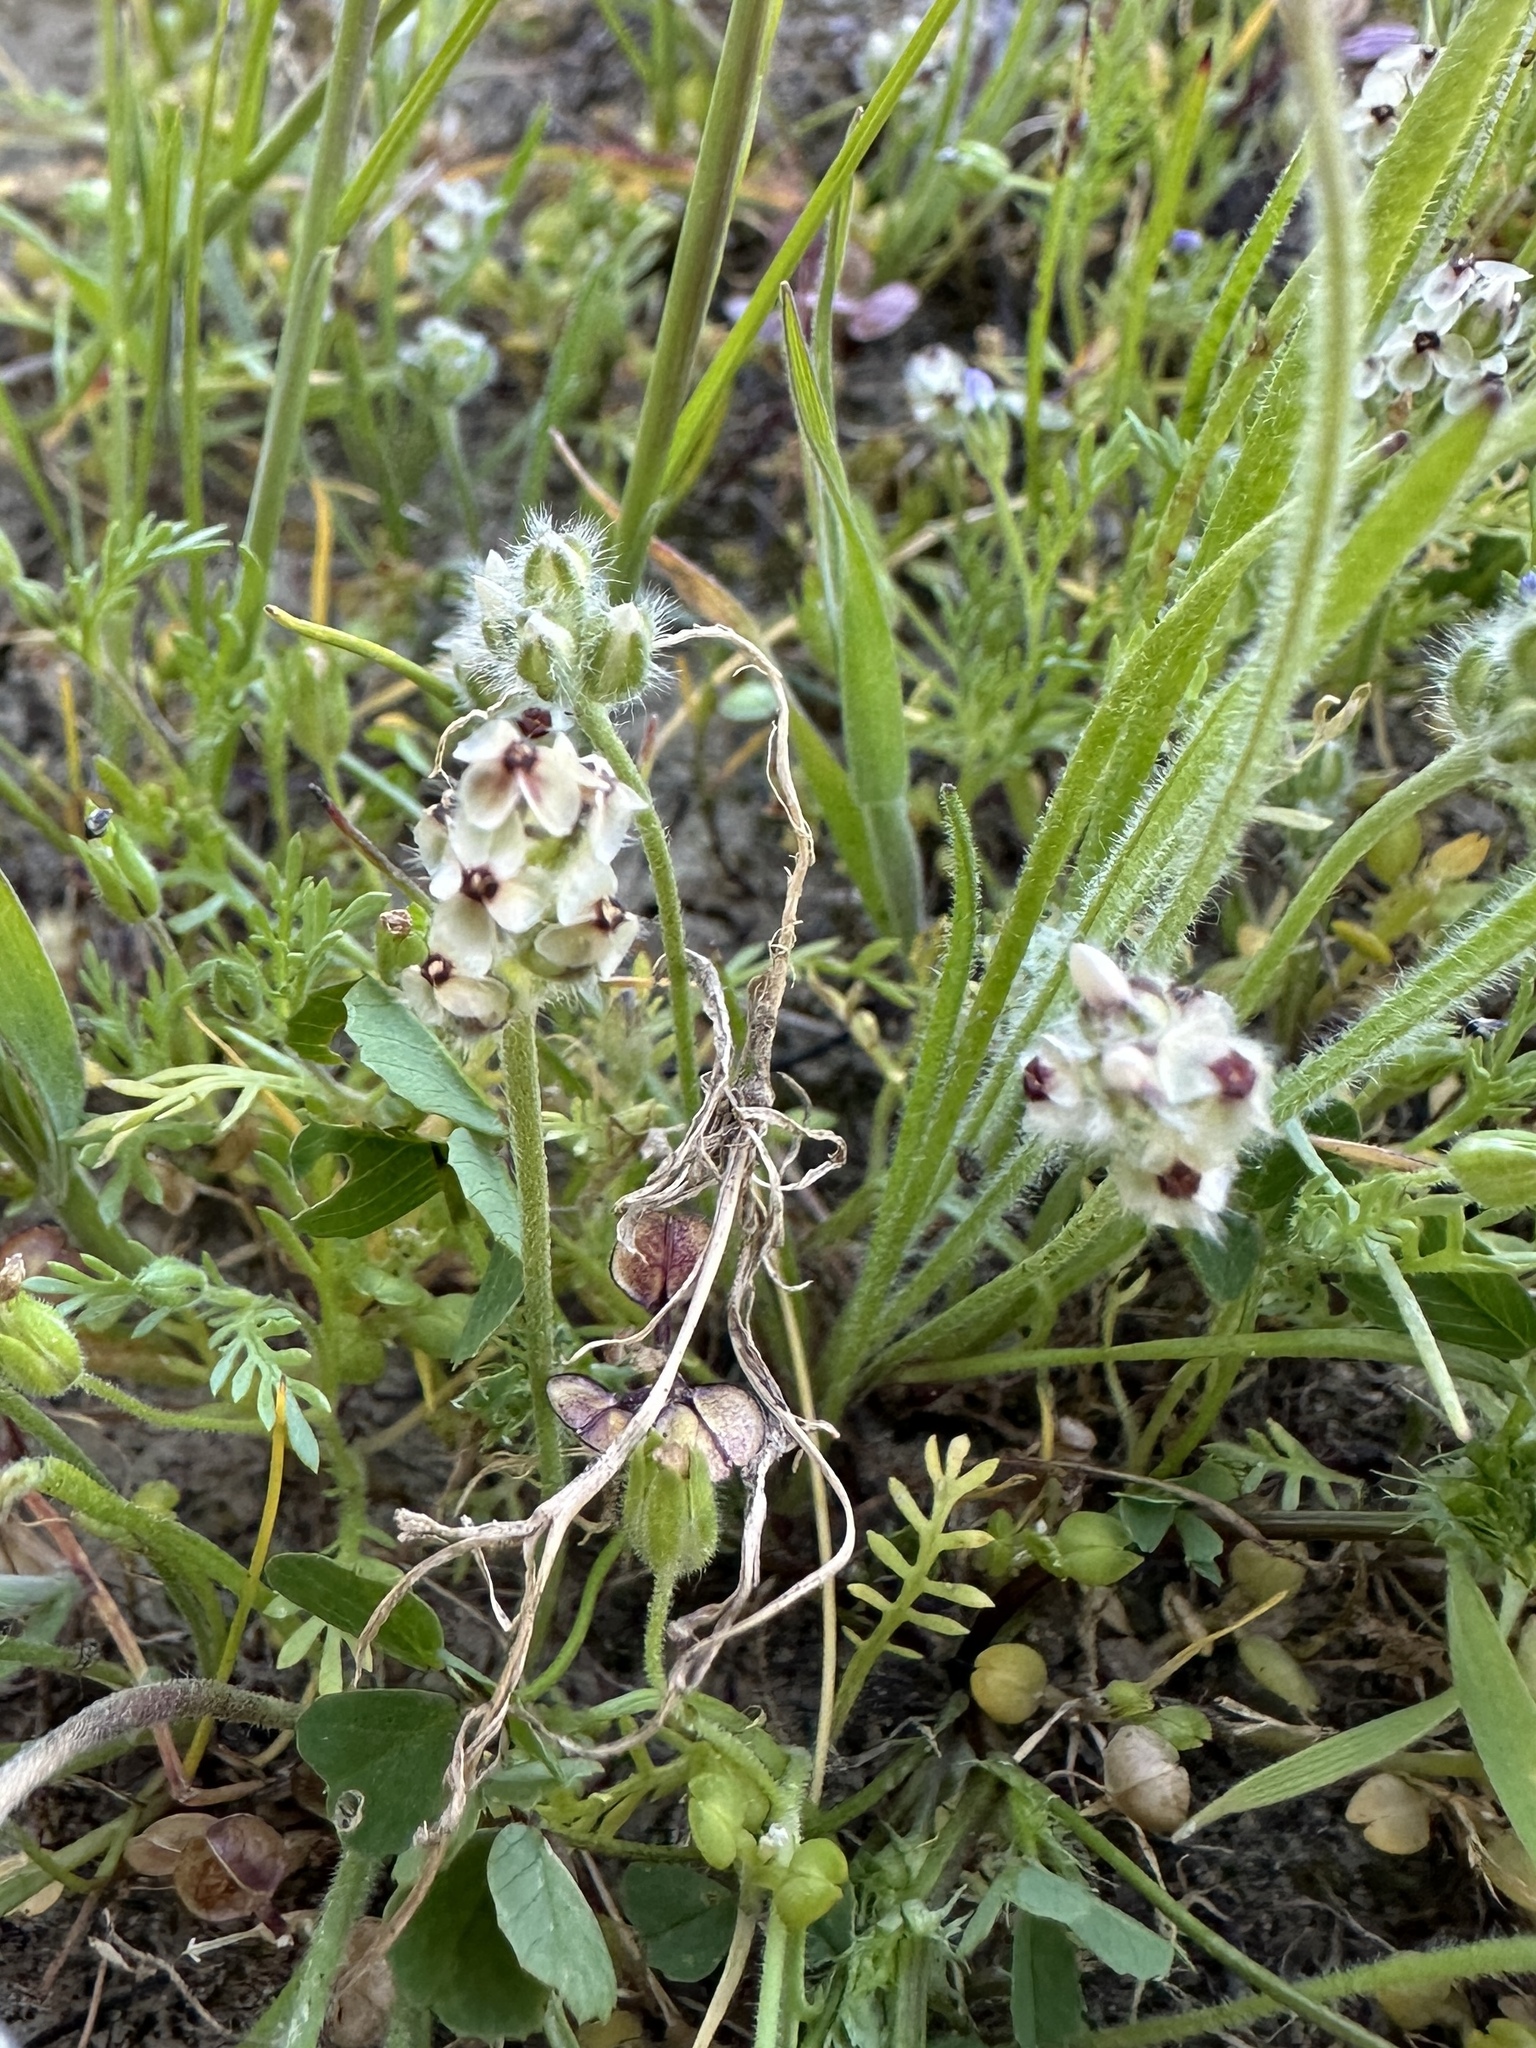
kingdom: Plantae
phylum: Tracheophyta
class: Magnoliopsida
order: Lamiales
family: Plantaginaceae
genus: Plantago
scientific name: Plantago erecta
